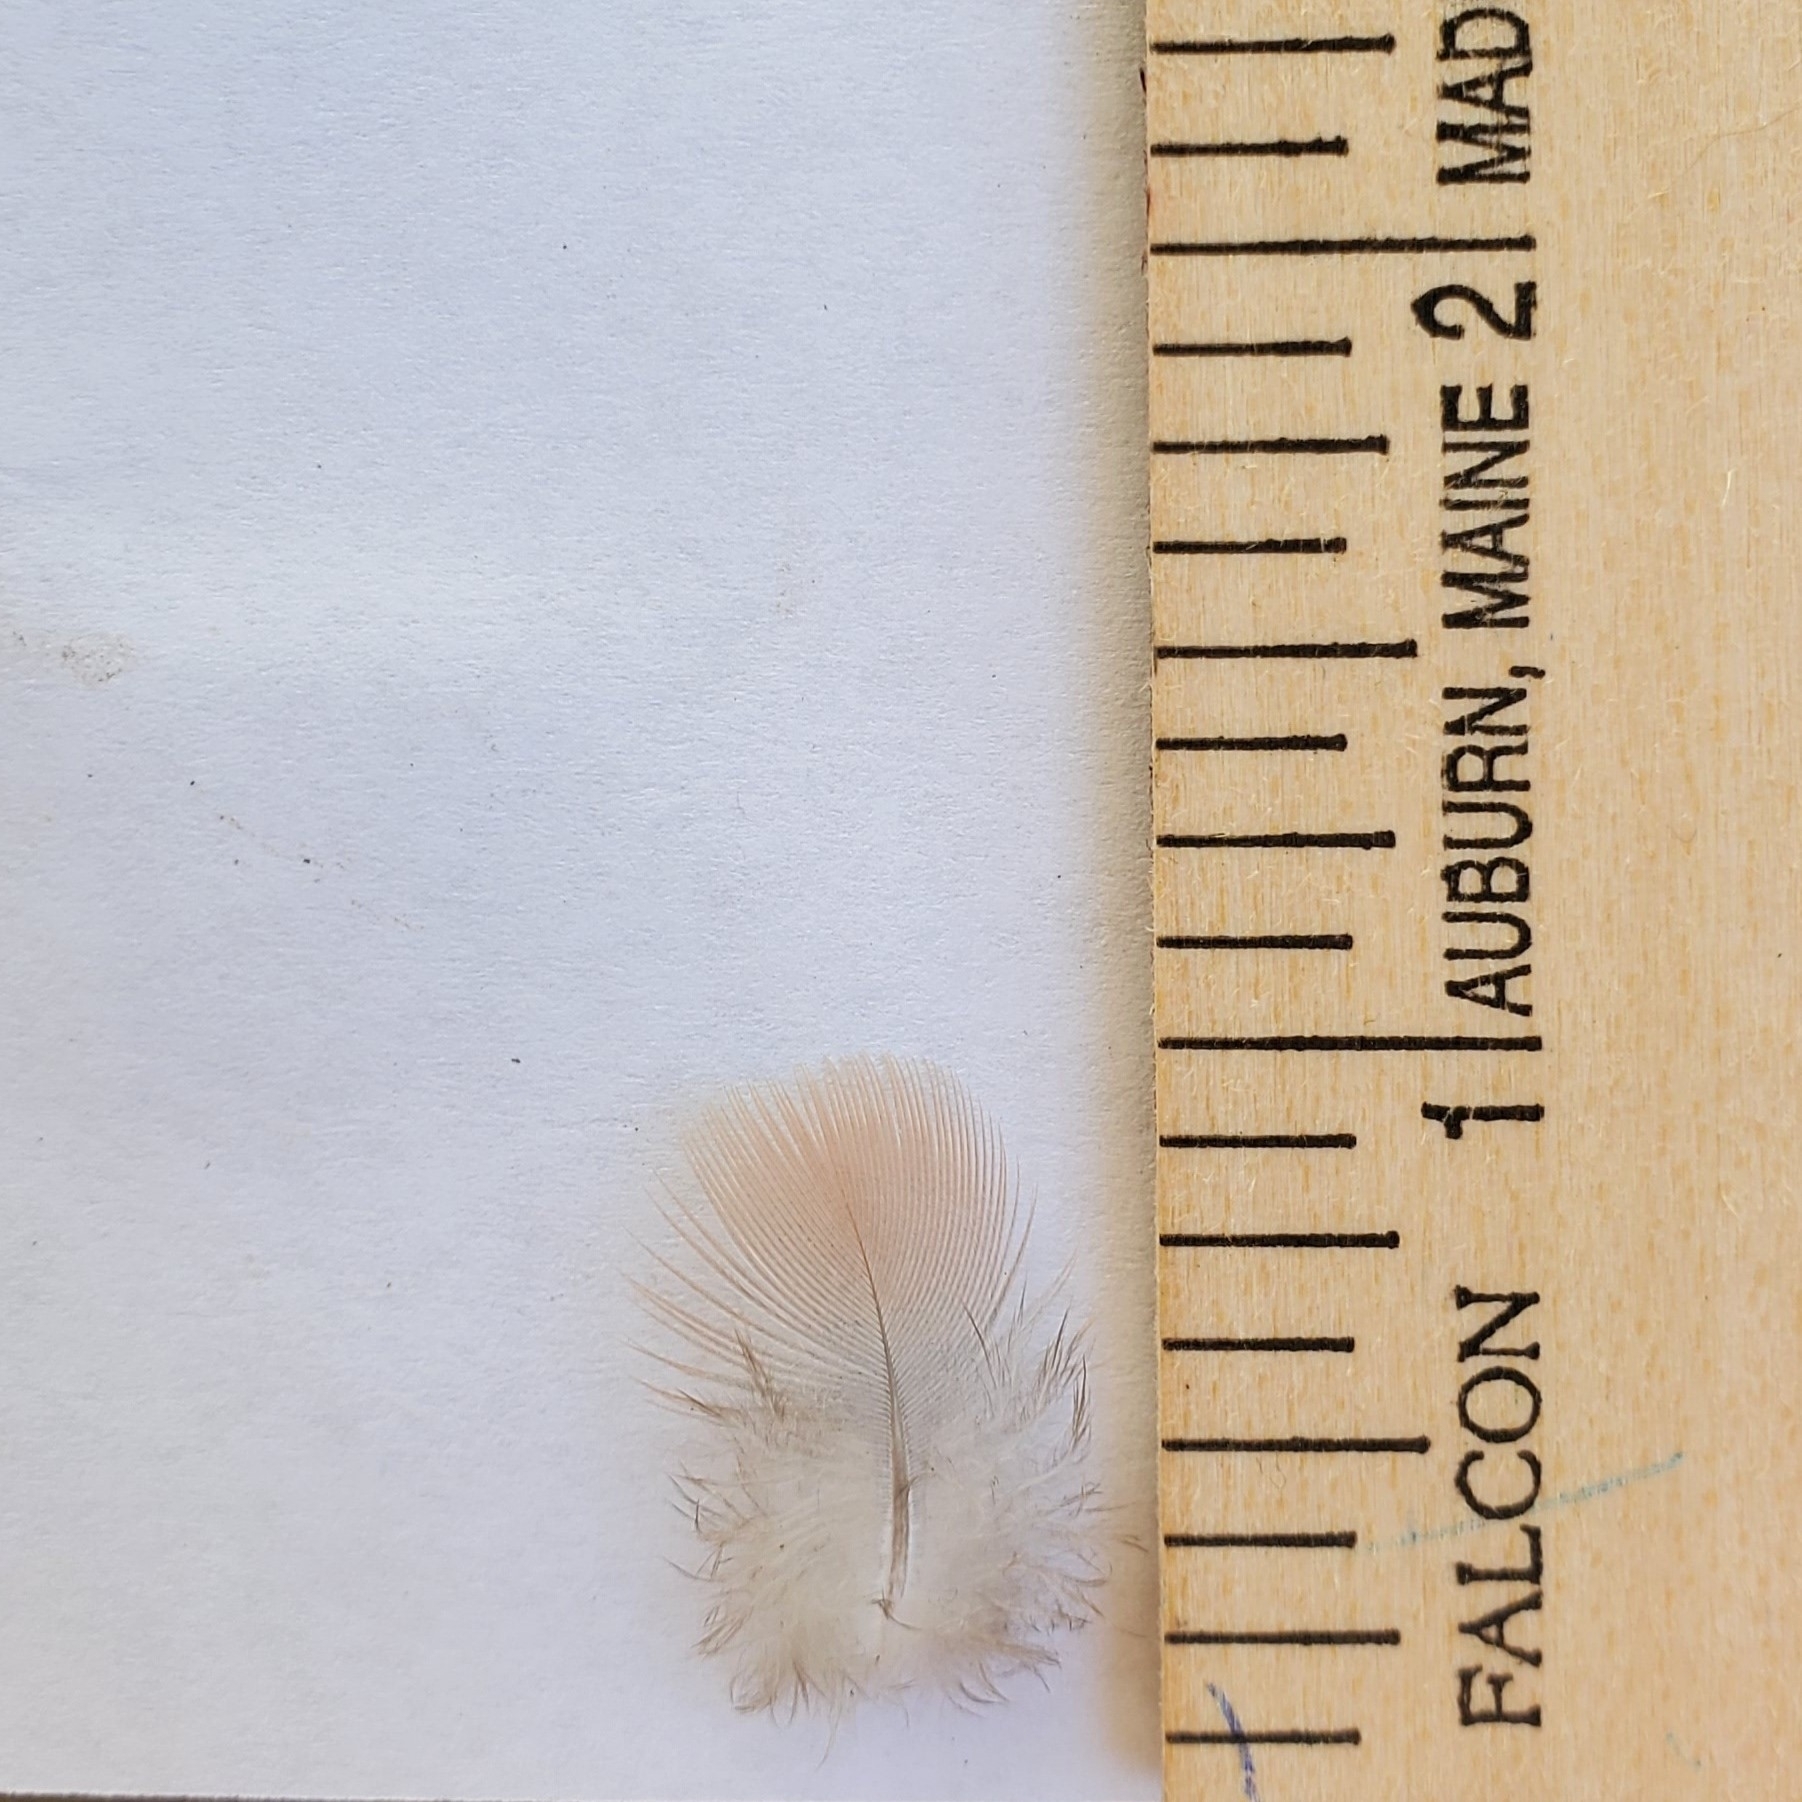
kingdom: Animalia
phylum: Chordata
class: Aves
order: Columbiformes
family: Columbidae
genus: Zenaida
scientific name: Zenaida macroura
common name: Mourning dove
